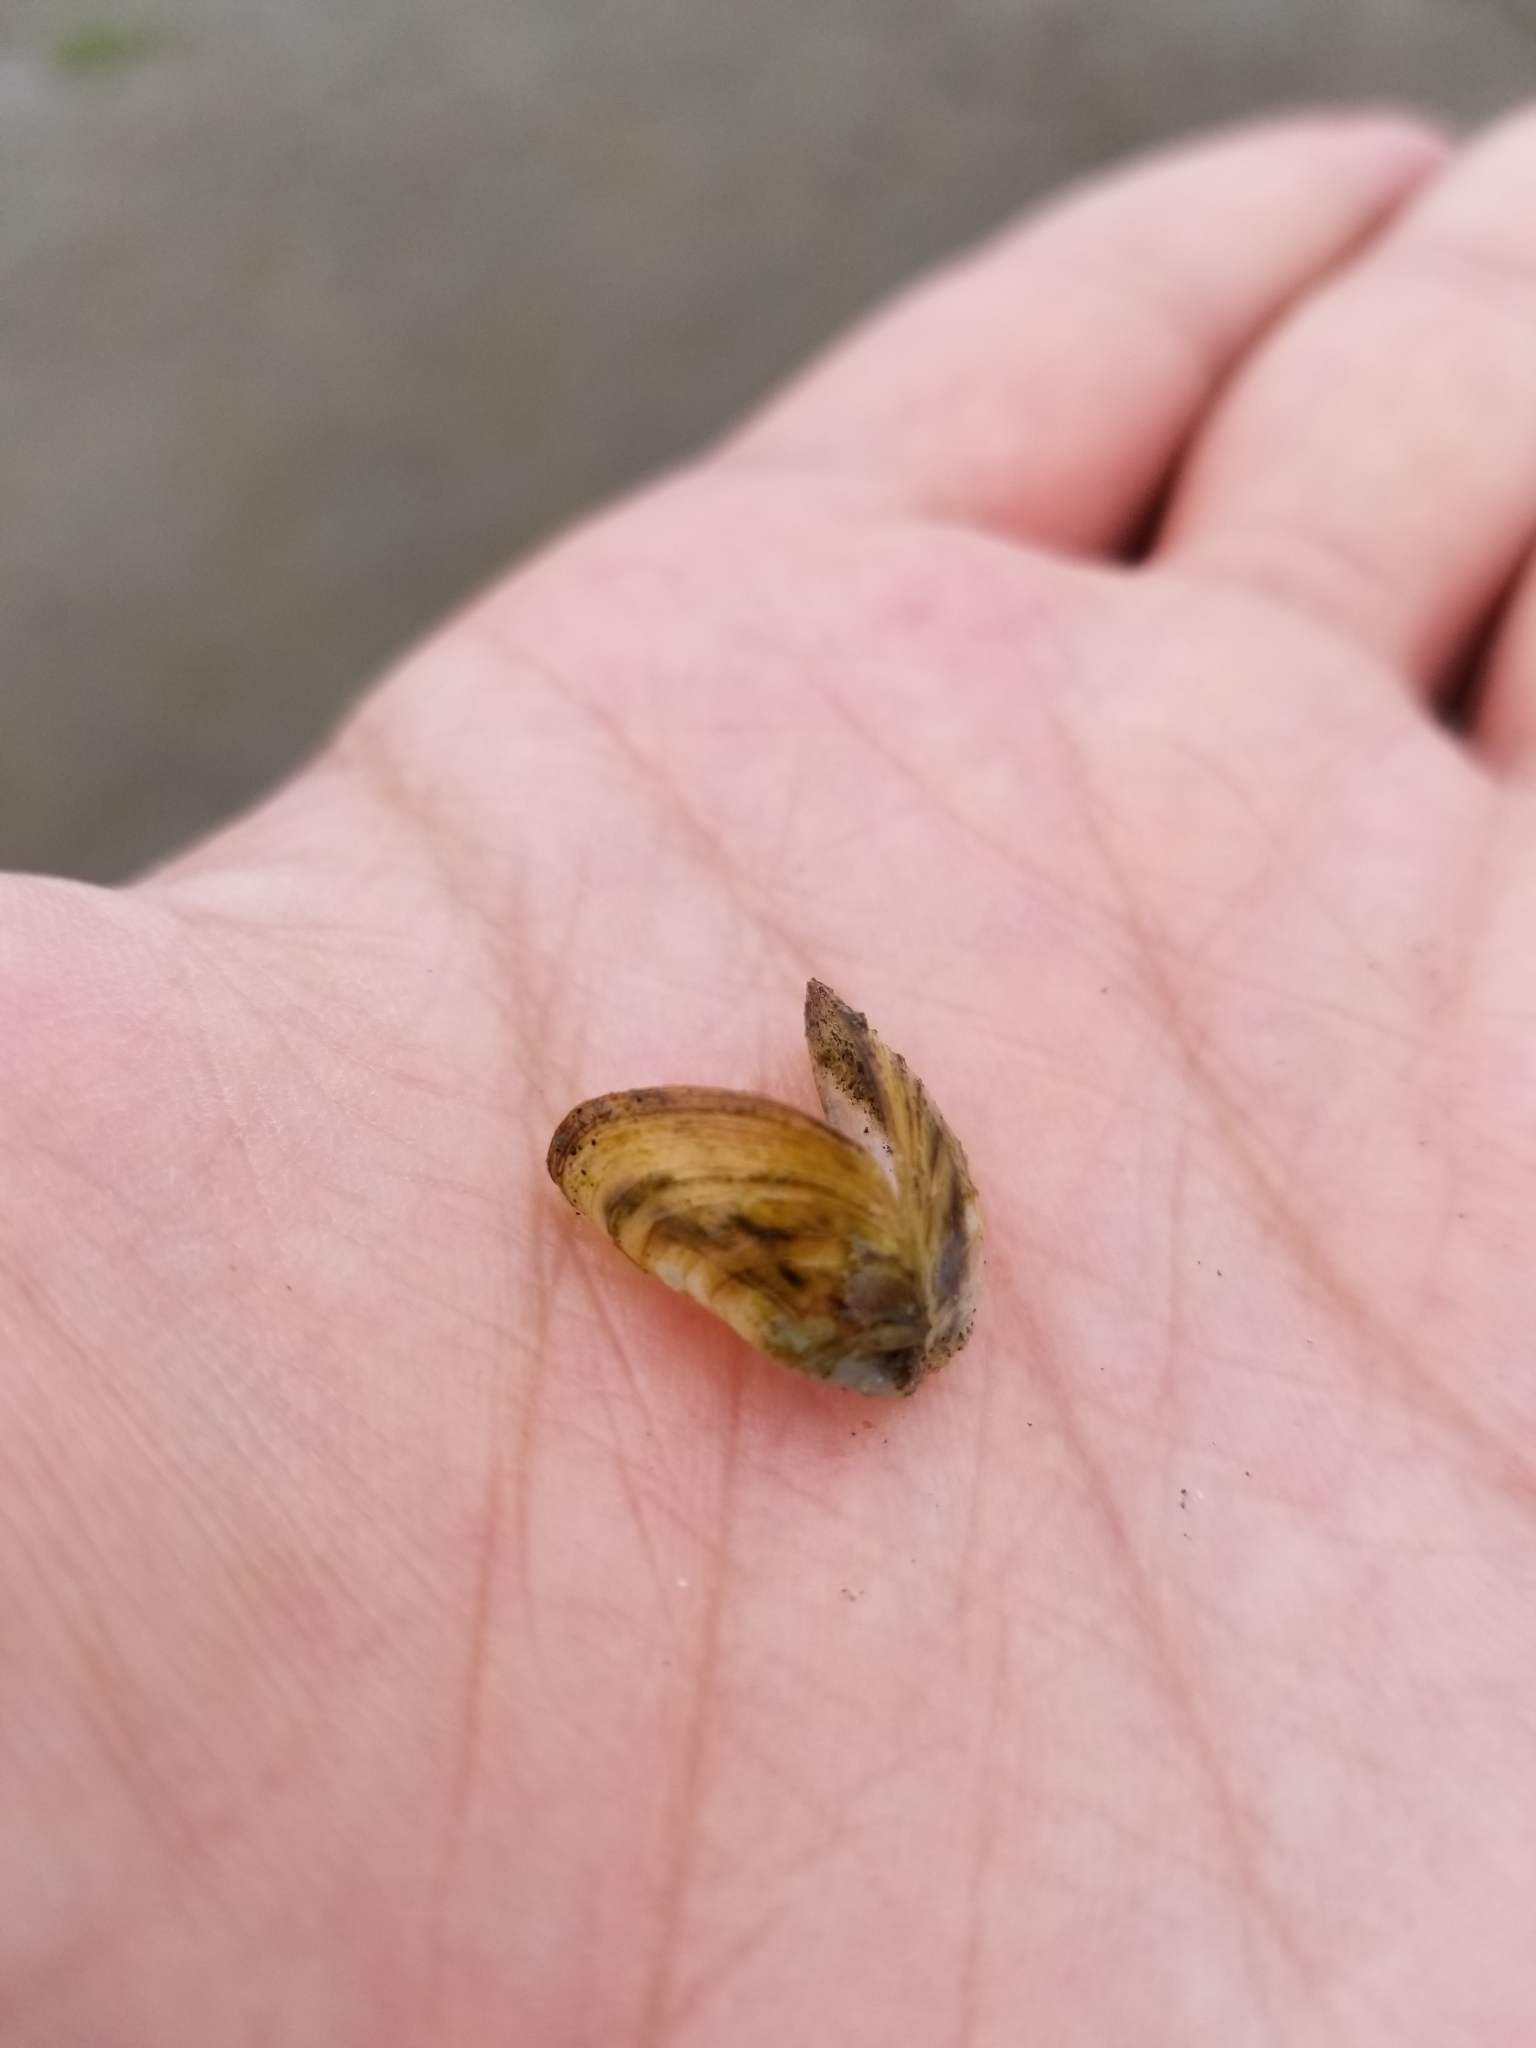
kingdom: Animalia
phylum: Mollusca
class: Bivalvia
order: Myida
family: Dreissenidae
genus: Dreissena
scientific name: Dreissena polymorpha
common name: Zebra mussel
